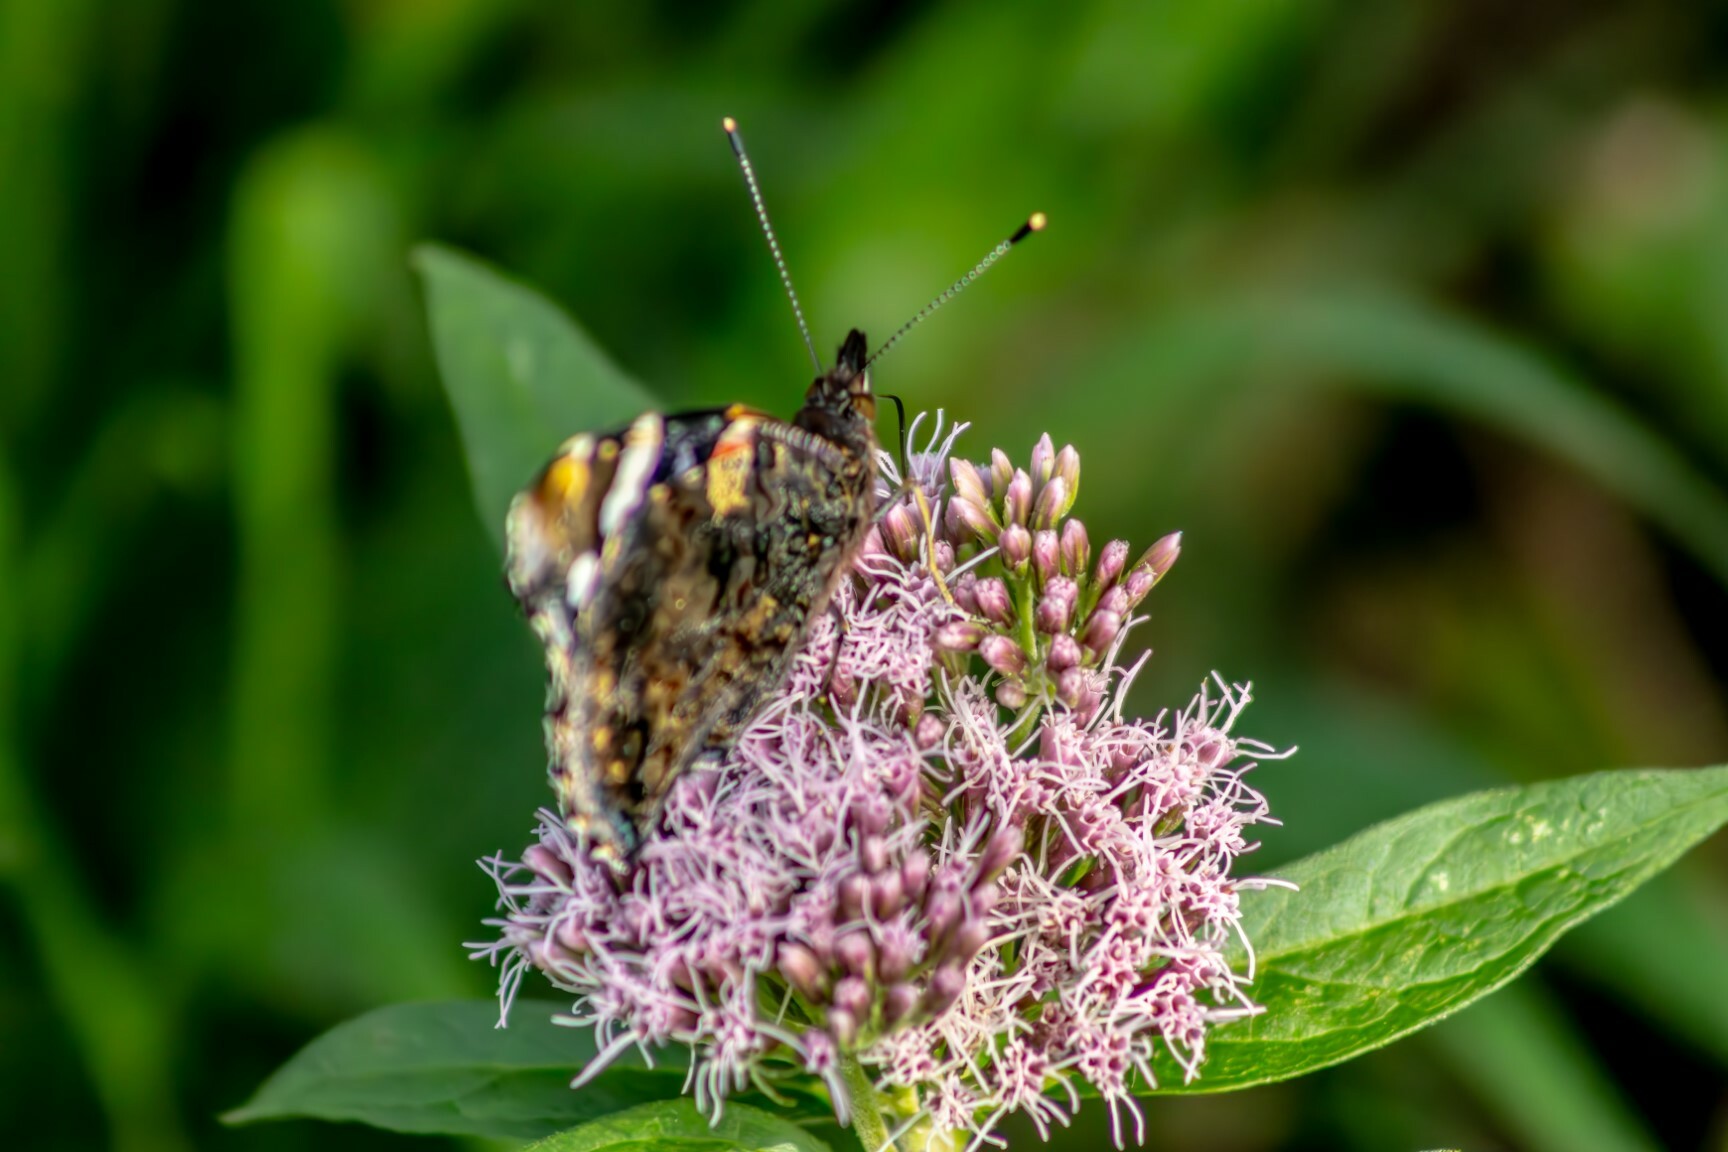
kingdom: Animalia
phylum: Arthropoda
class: Insecta
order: Lepidoptera
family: Nymphalidae
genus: Vanessa
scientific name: Vanessa atalanta
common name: Red admiral
